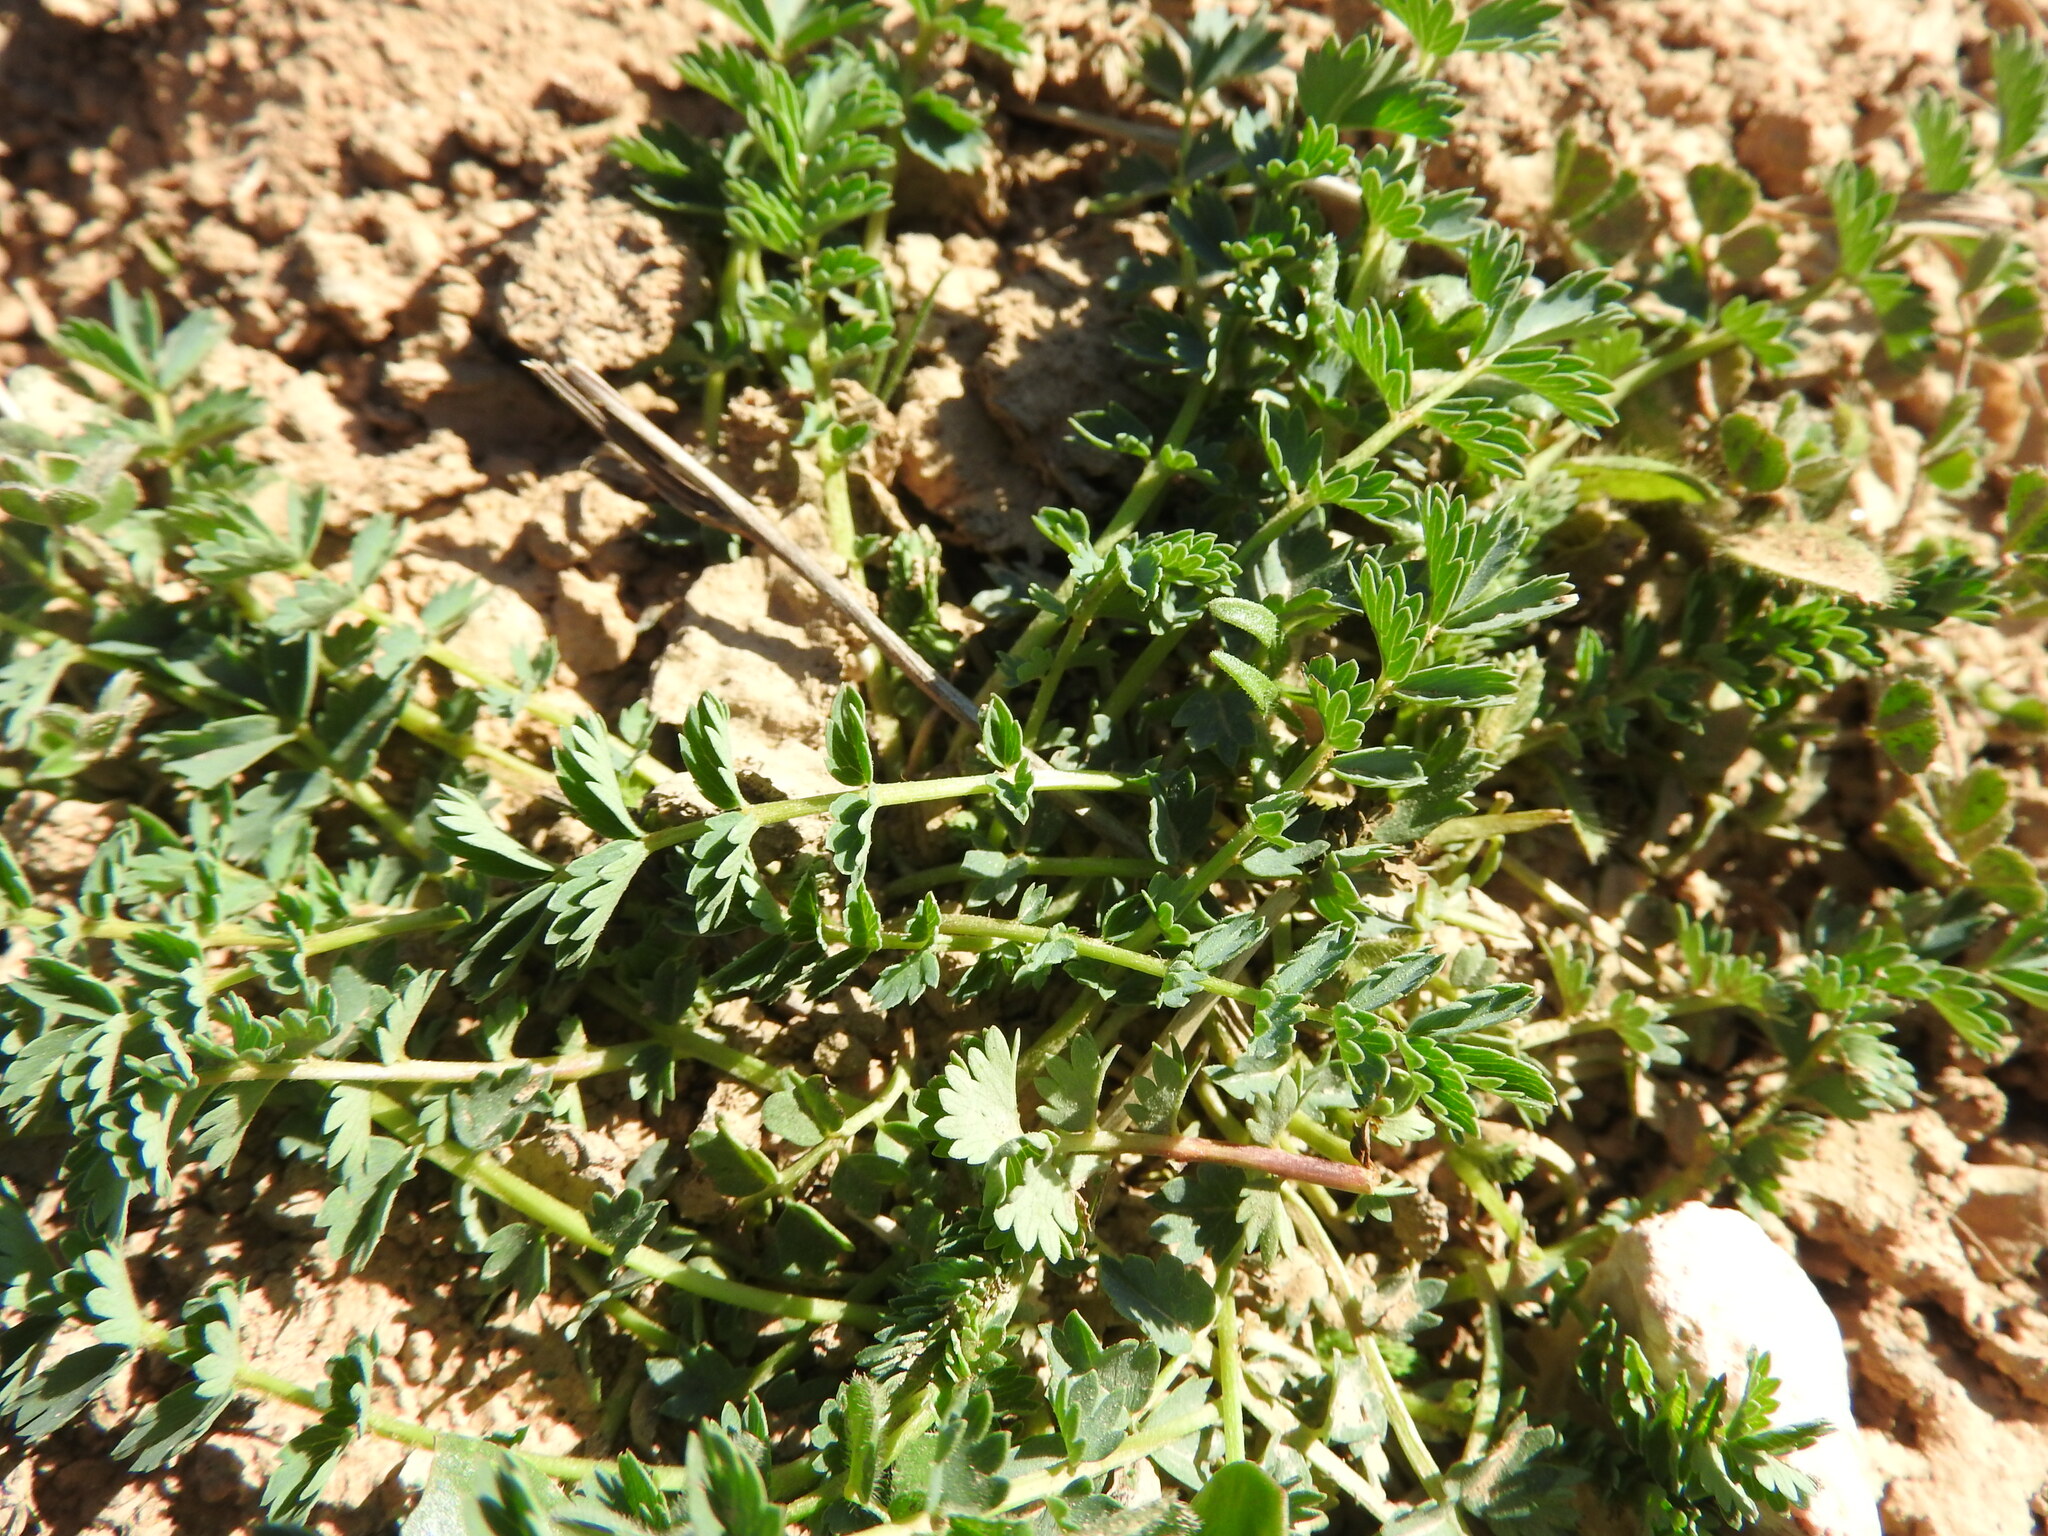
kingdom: Plantae
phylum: Tracheophyta
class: Magnoliopsida
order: Rosales
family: Rosaceae
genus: Poterium
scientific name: Poterium
